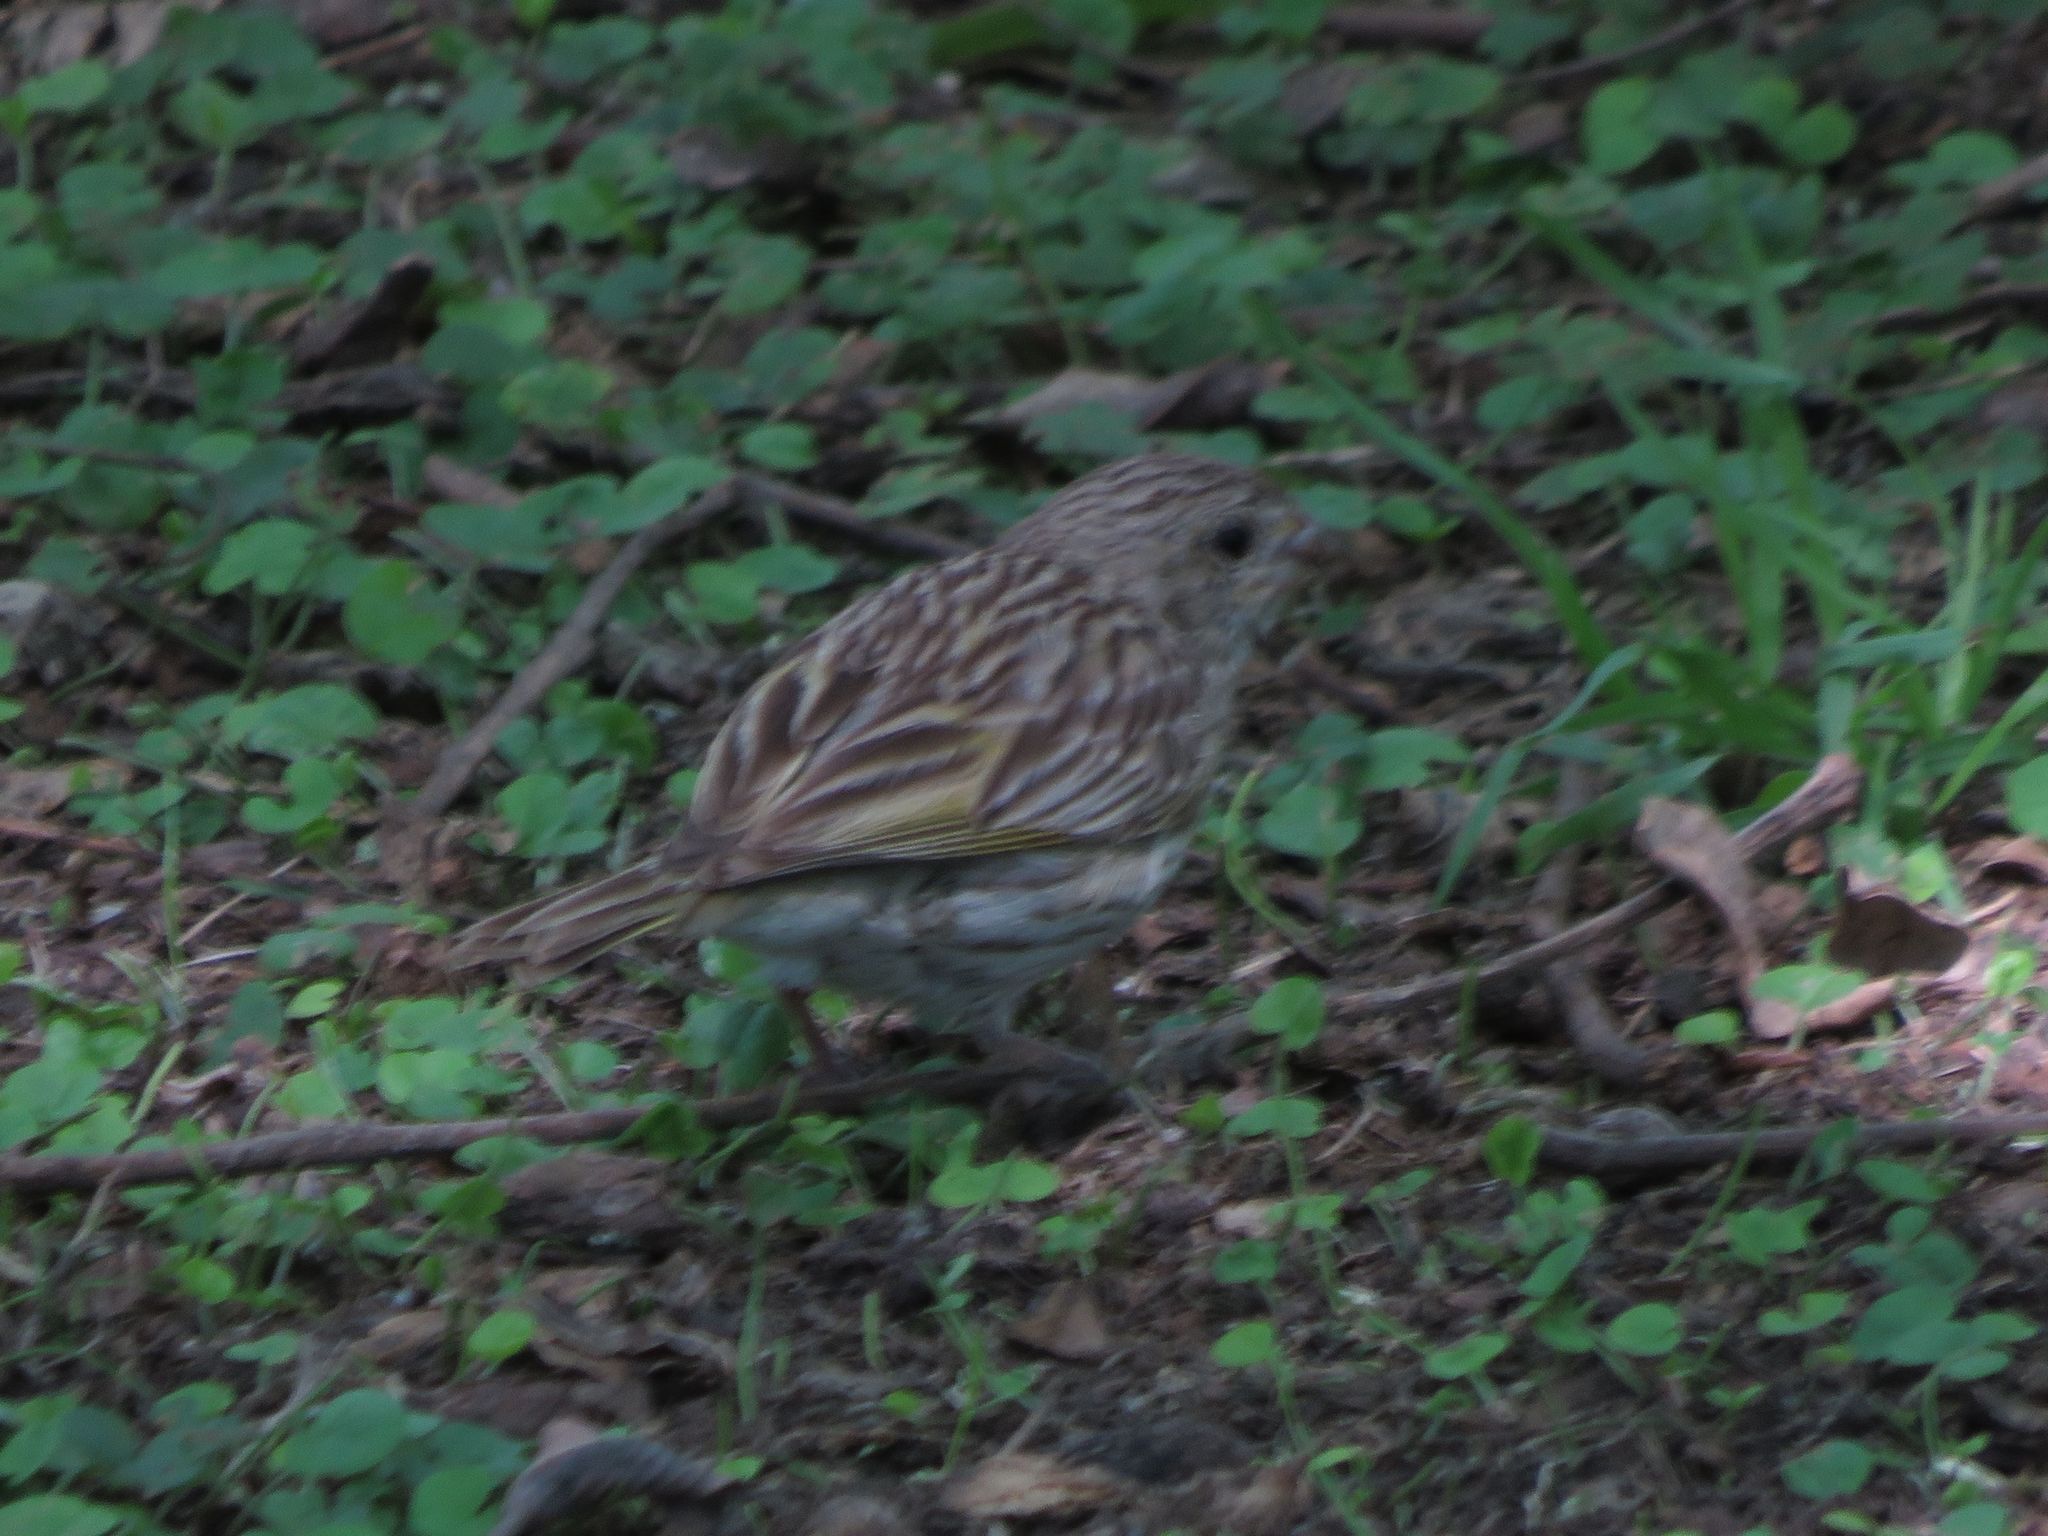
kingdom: Animalia
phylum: Chordata
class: Aves
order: Passeriformes
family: Thraupidae
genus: Sicalis
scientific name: Sicalis flaveola
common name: Saffron finch
